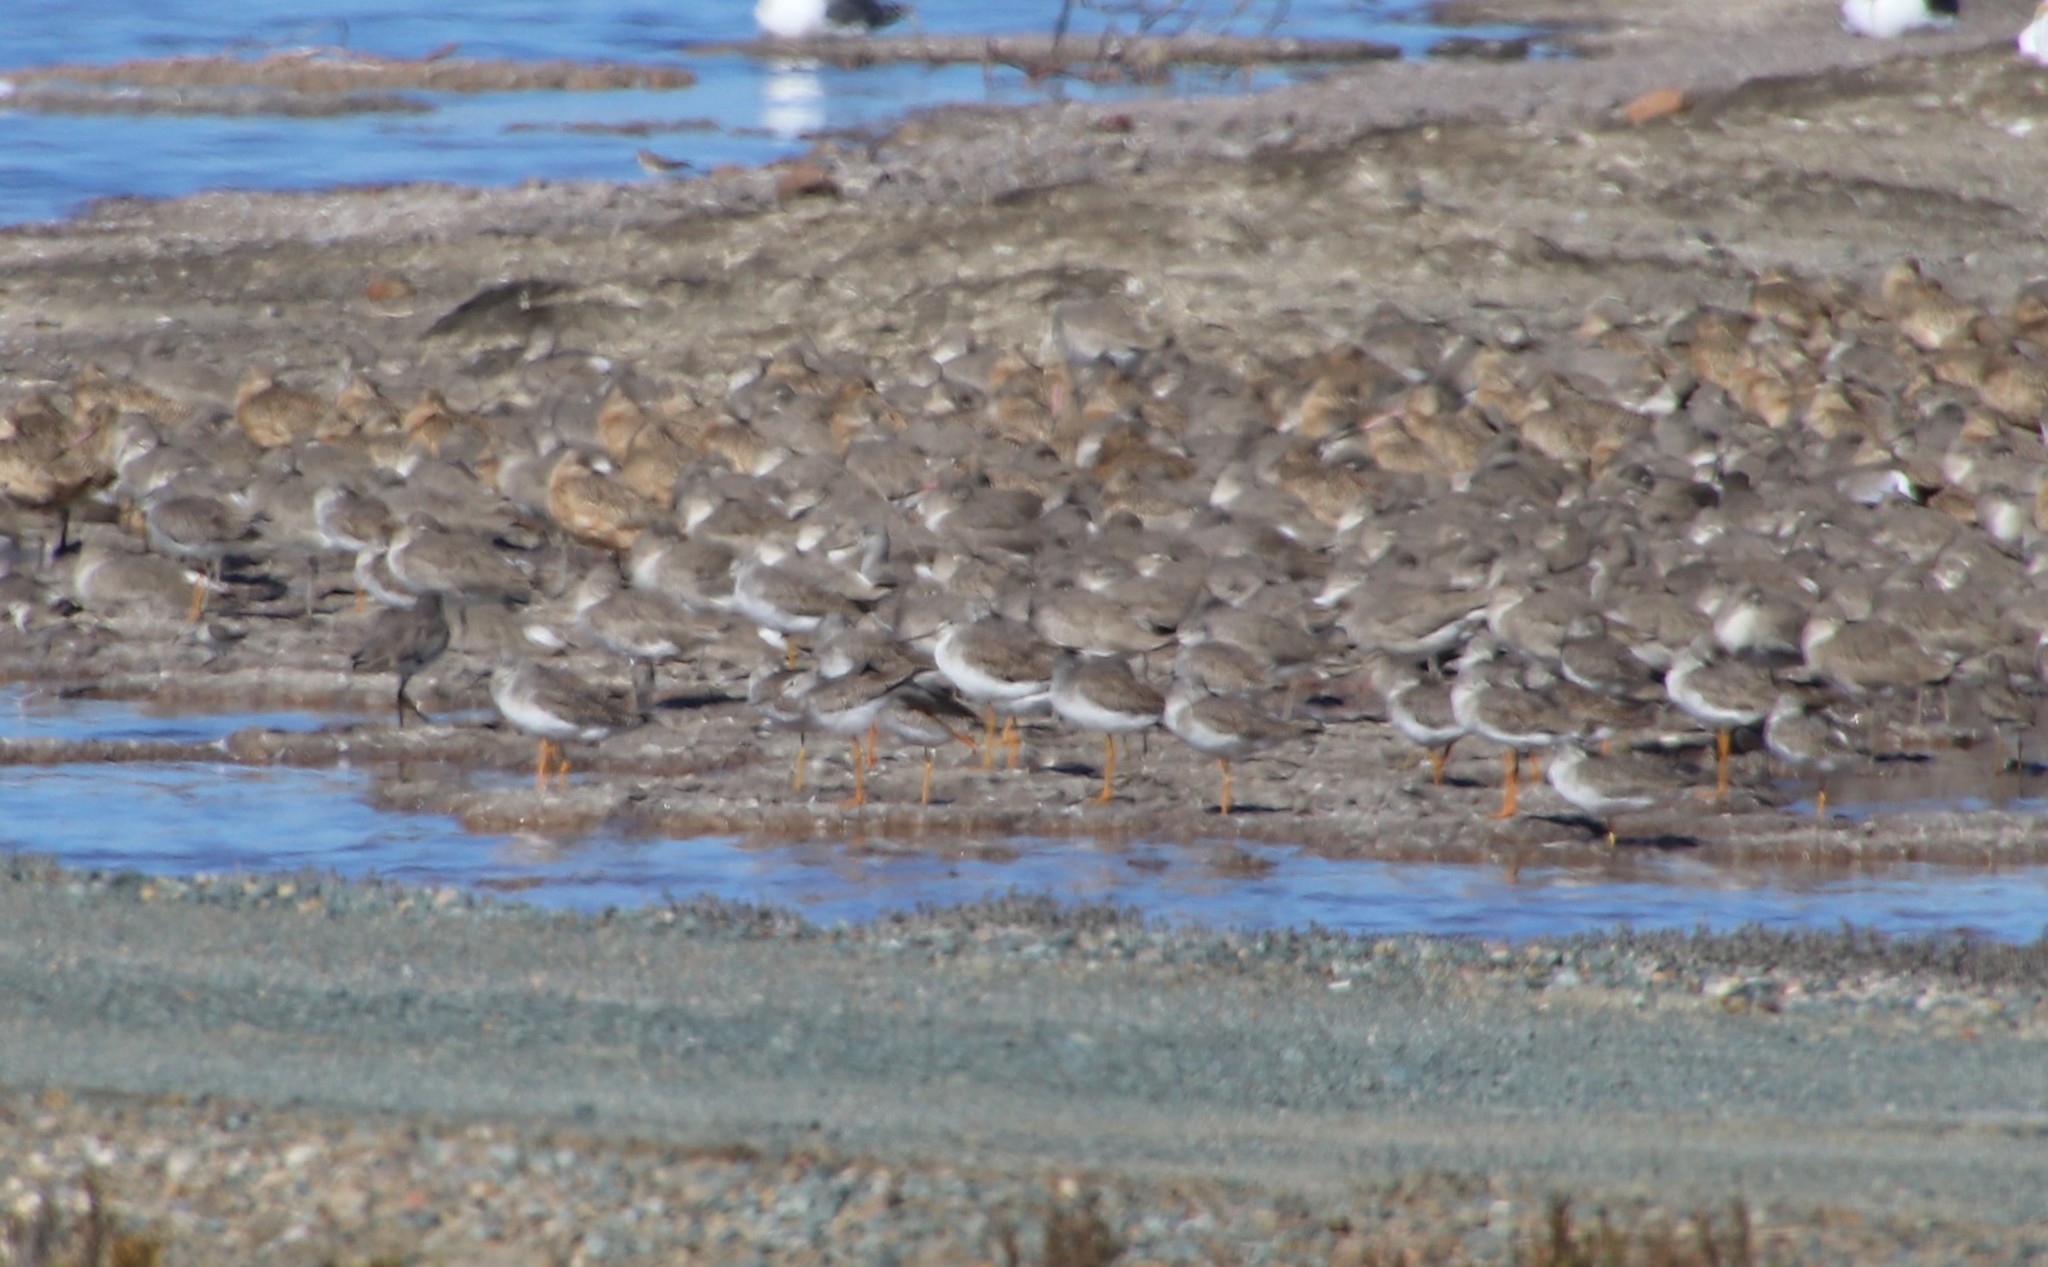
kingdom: Animalia
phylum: Chordata
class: Aves
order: Charadriiformes
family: Scolopacidae
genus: Tringa
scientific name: Tringa melanoleuca
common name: Greater yellowlegs
